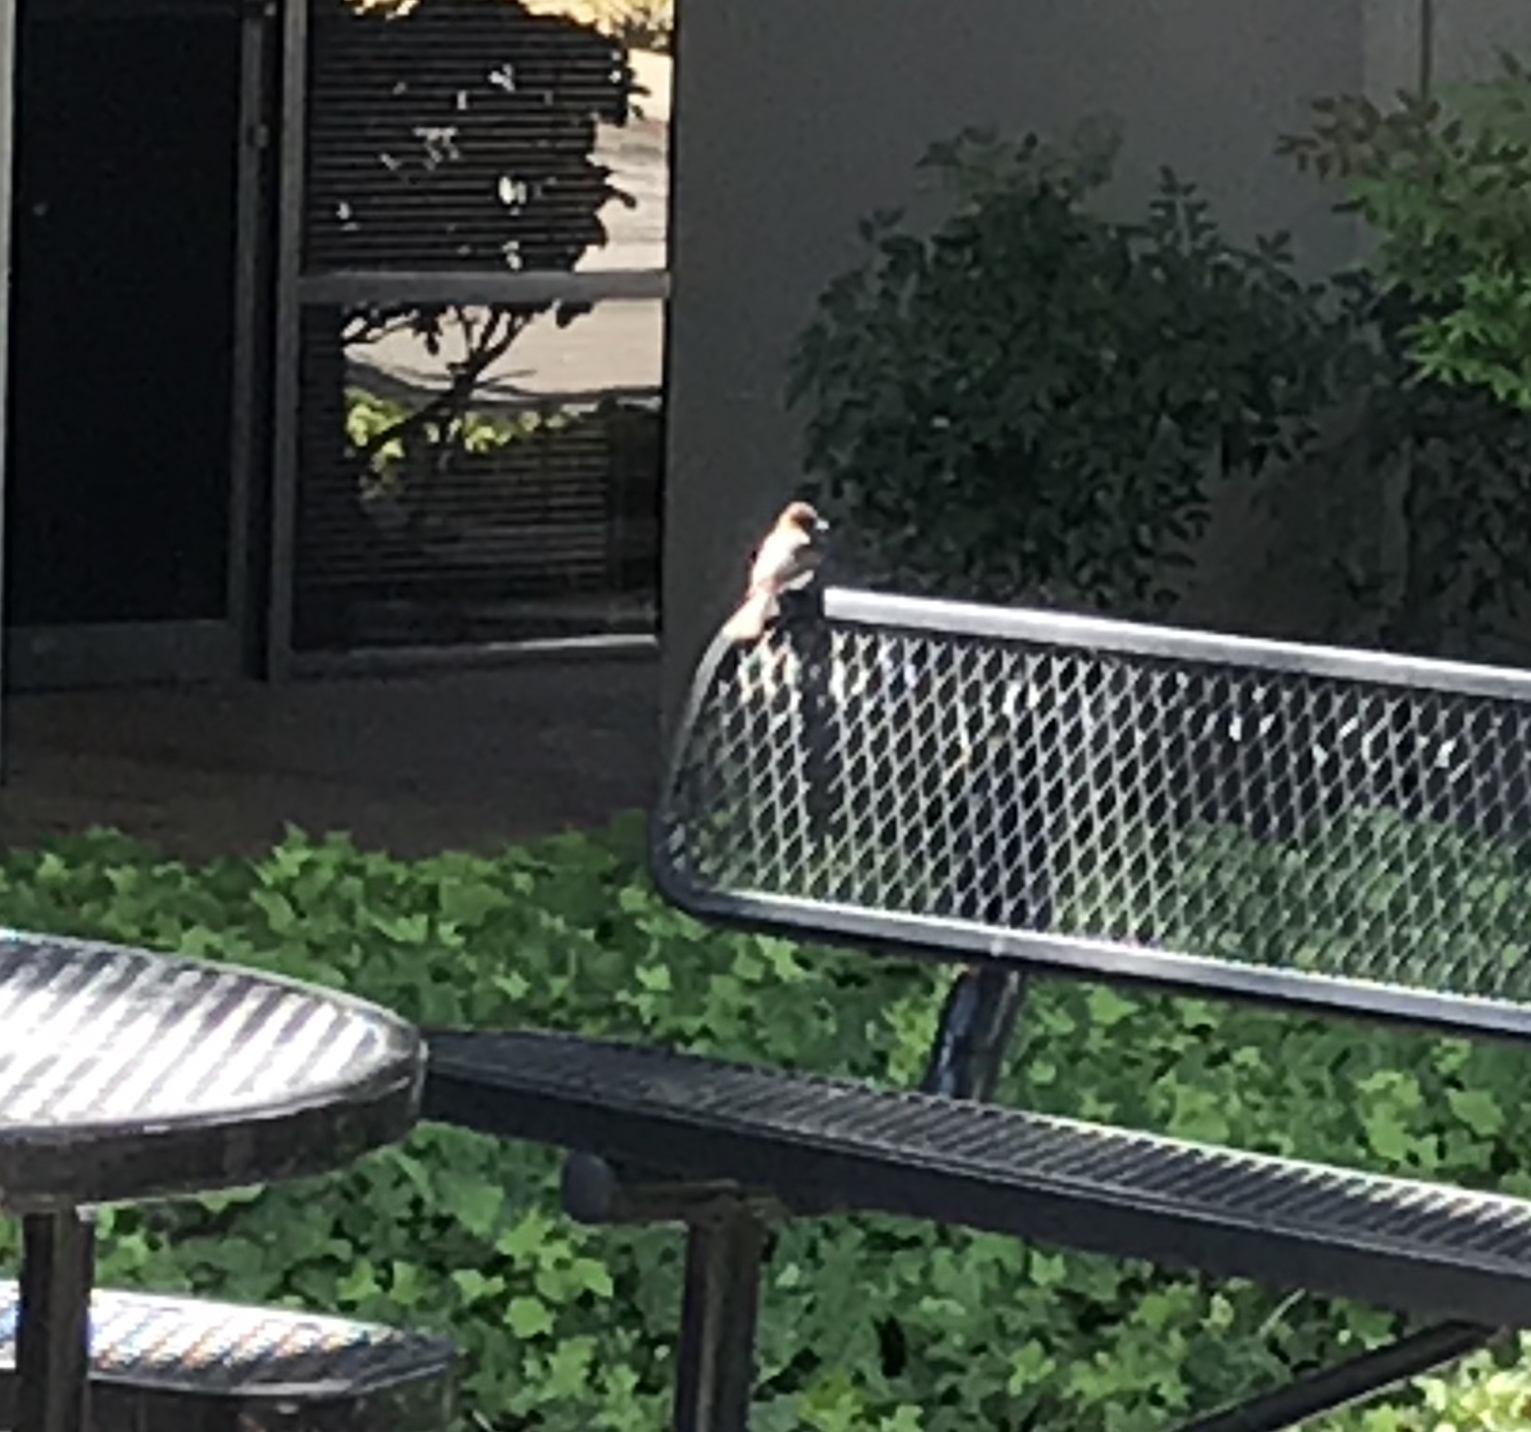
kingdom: Animalia
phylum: Chordata
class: Aves
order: Passeriformes
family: Tyrannidae
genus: Sayornis
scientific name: Sayornis nigricans
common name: Black phoebe
